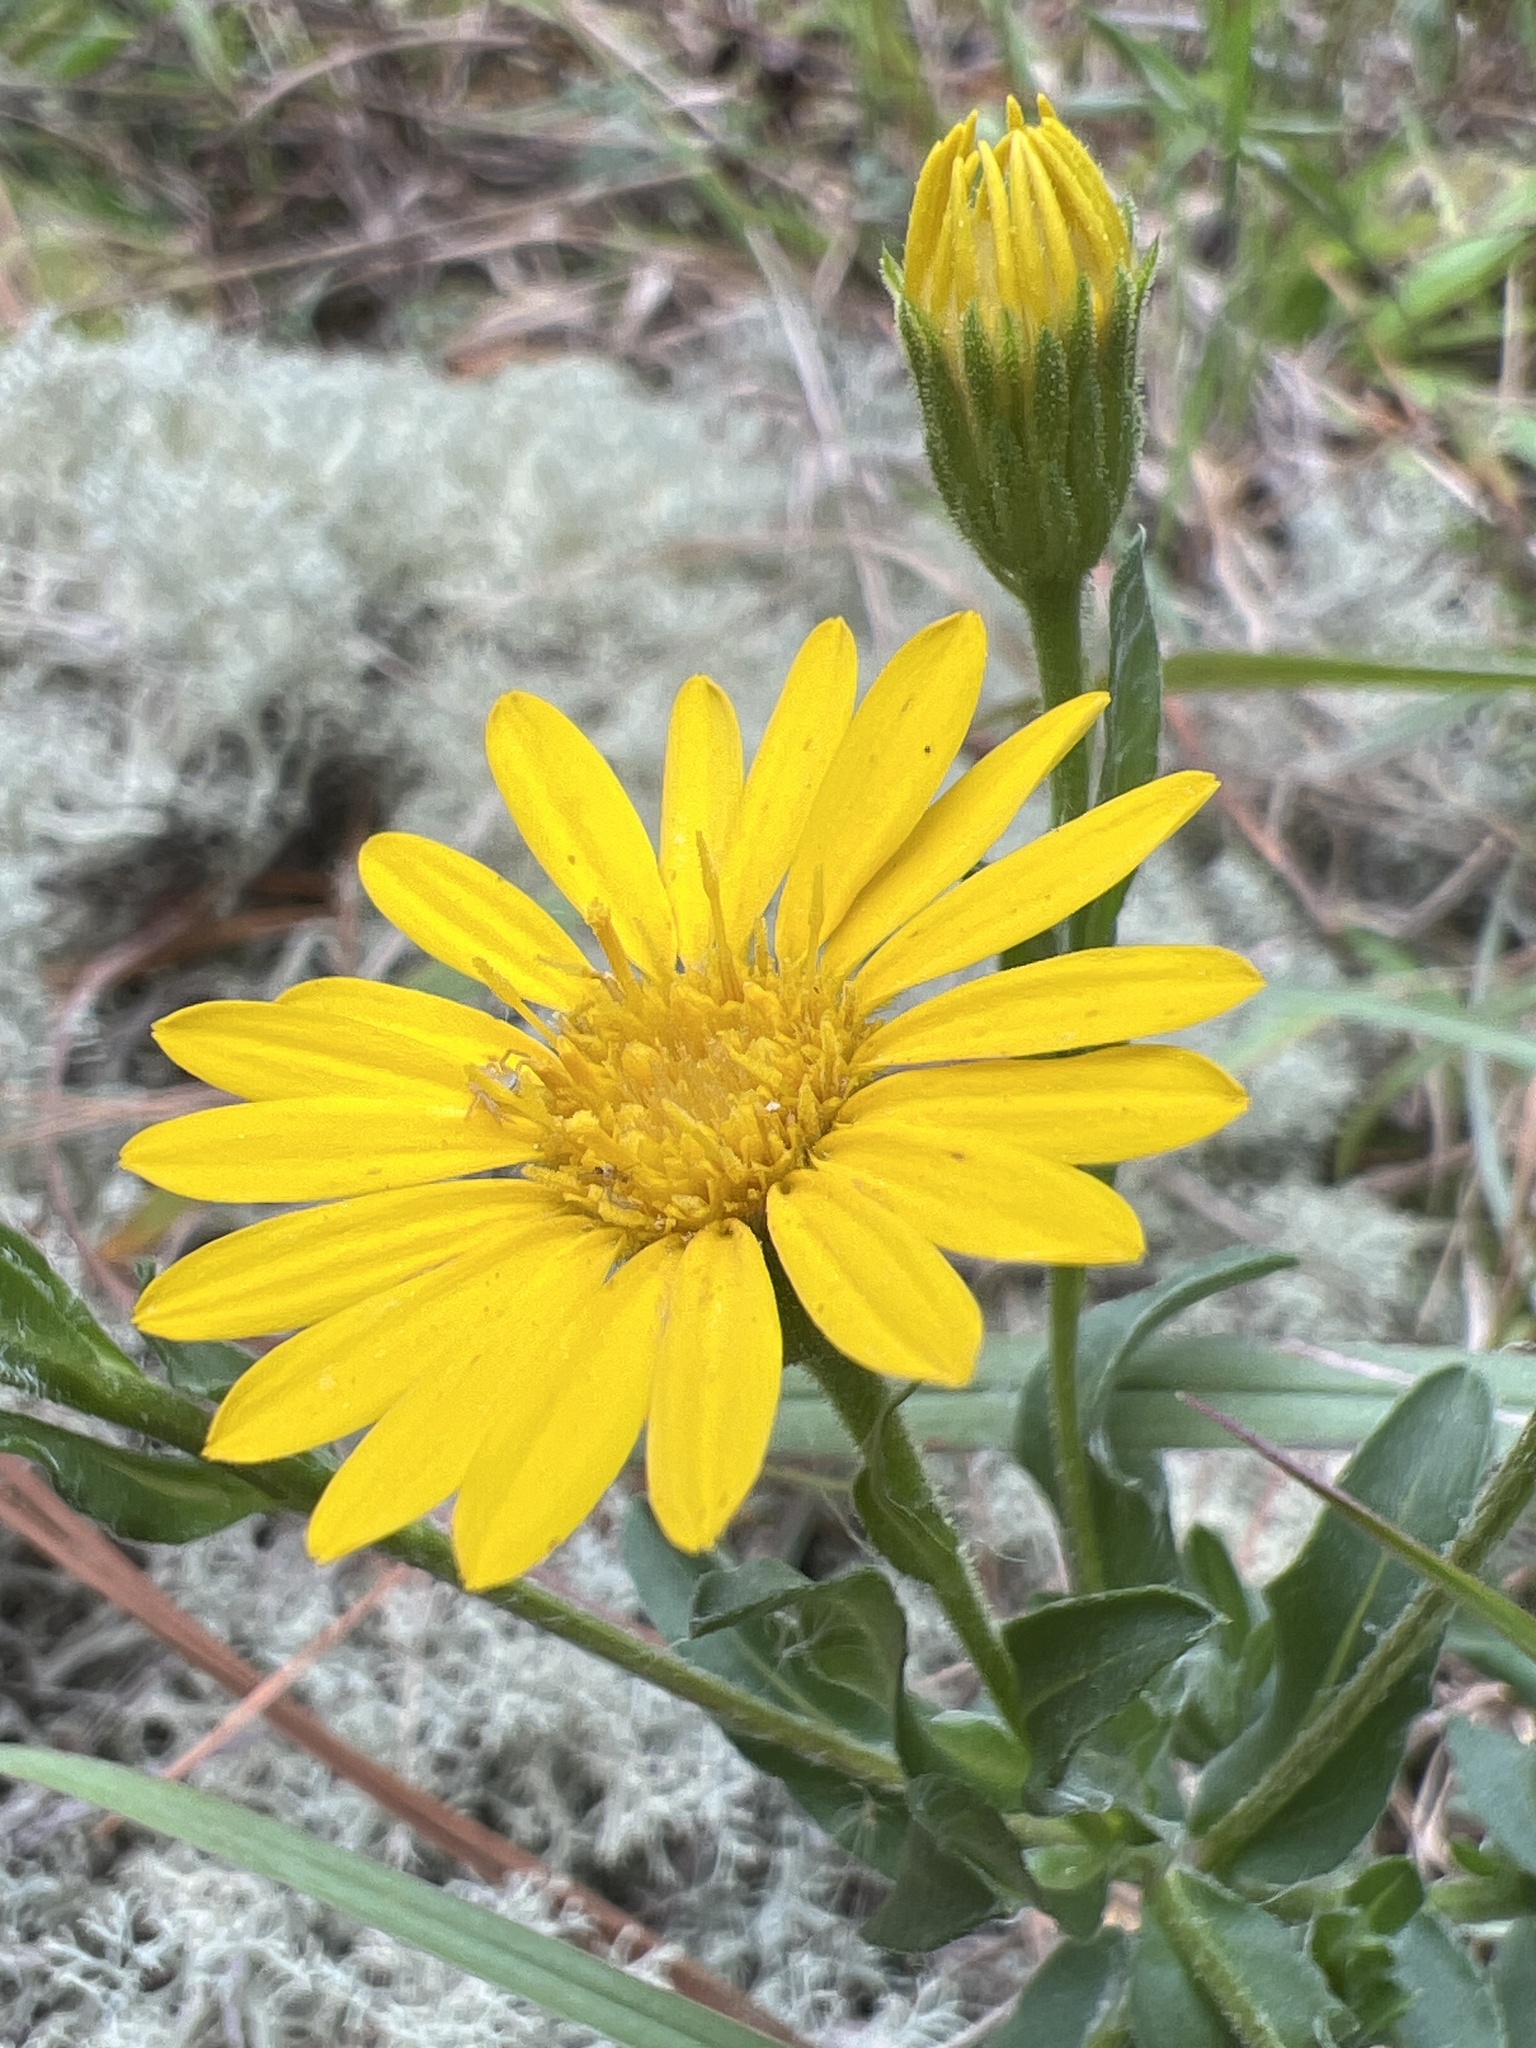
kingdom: Plantae
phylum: Tracheophyta
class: Magnoliopsida
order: Asterales
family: Asteraceae
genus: Chrysopsis
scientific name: Chrysopsis mariana
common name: Maryland golden-aster
